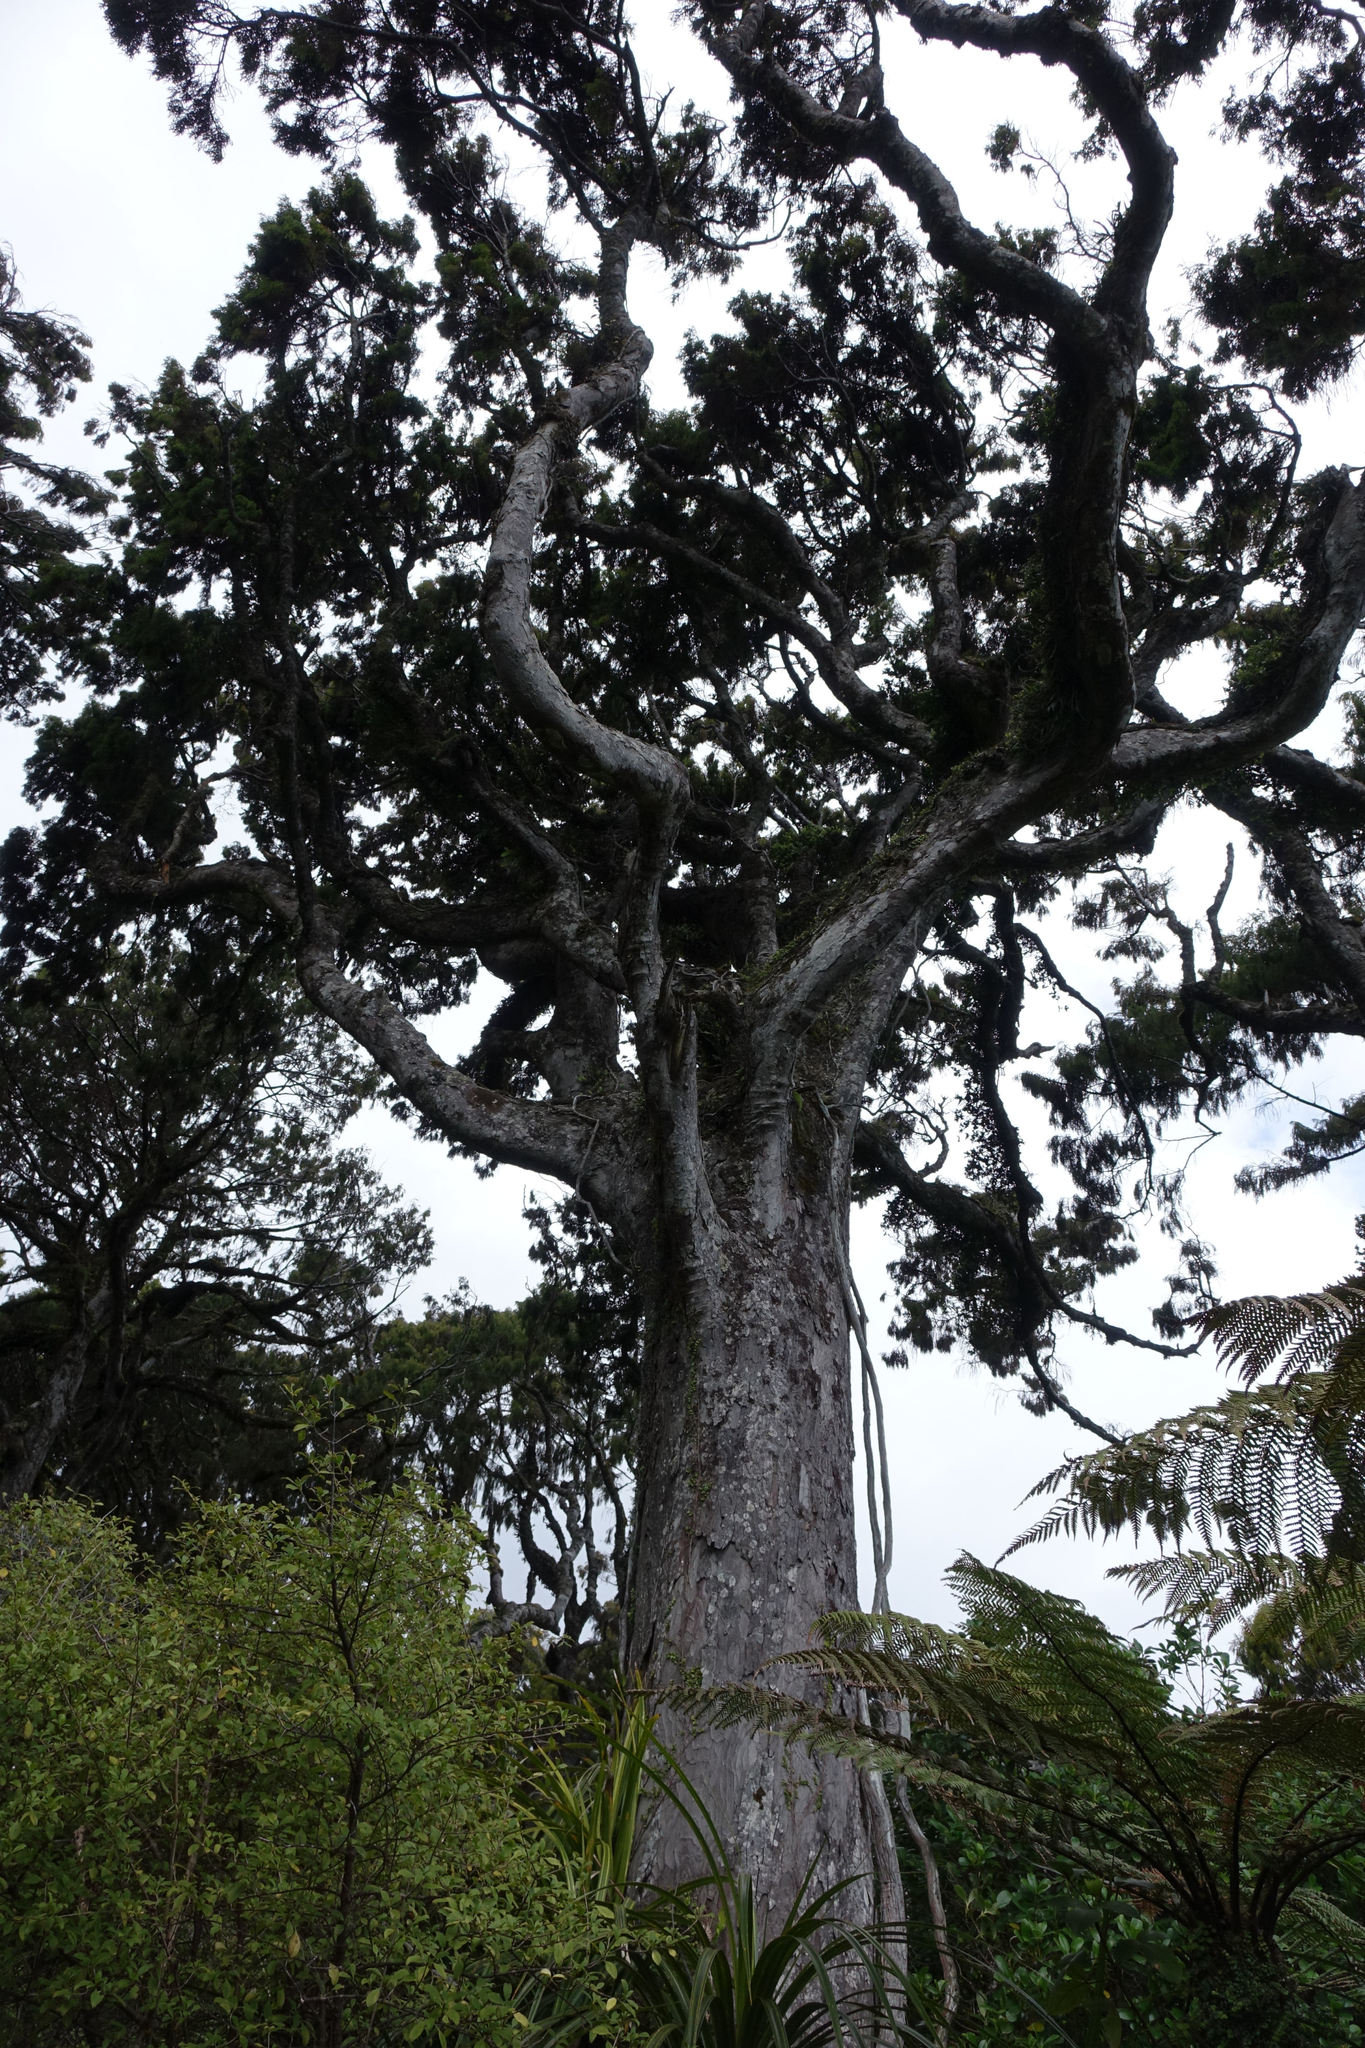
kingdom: Plantae
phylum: Tracheophyta
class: Pinopsida
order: Pinales
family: Podocarpaceae
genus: Dacrydium
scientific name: Dacrydium cupressinum
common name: Red pine
